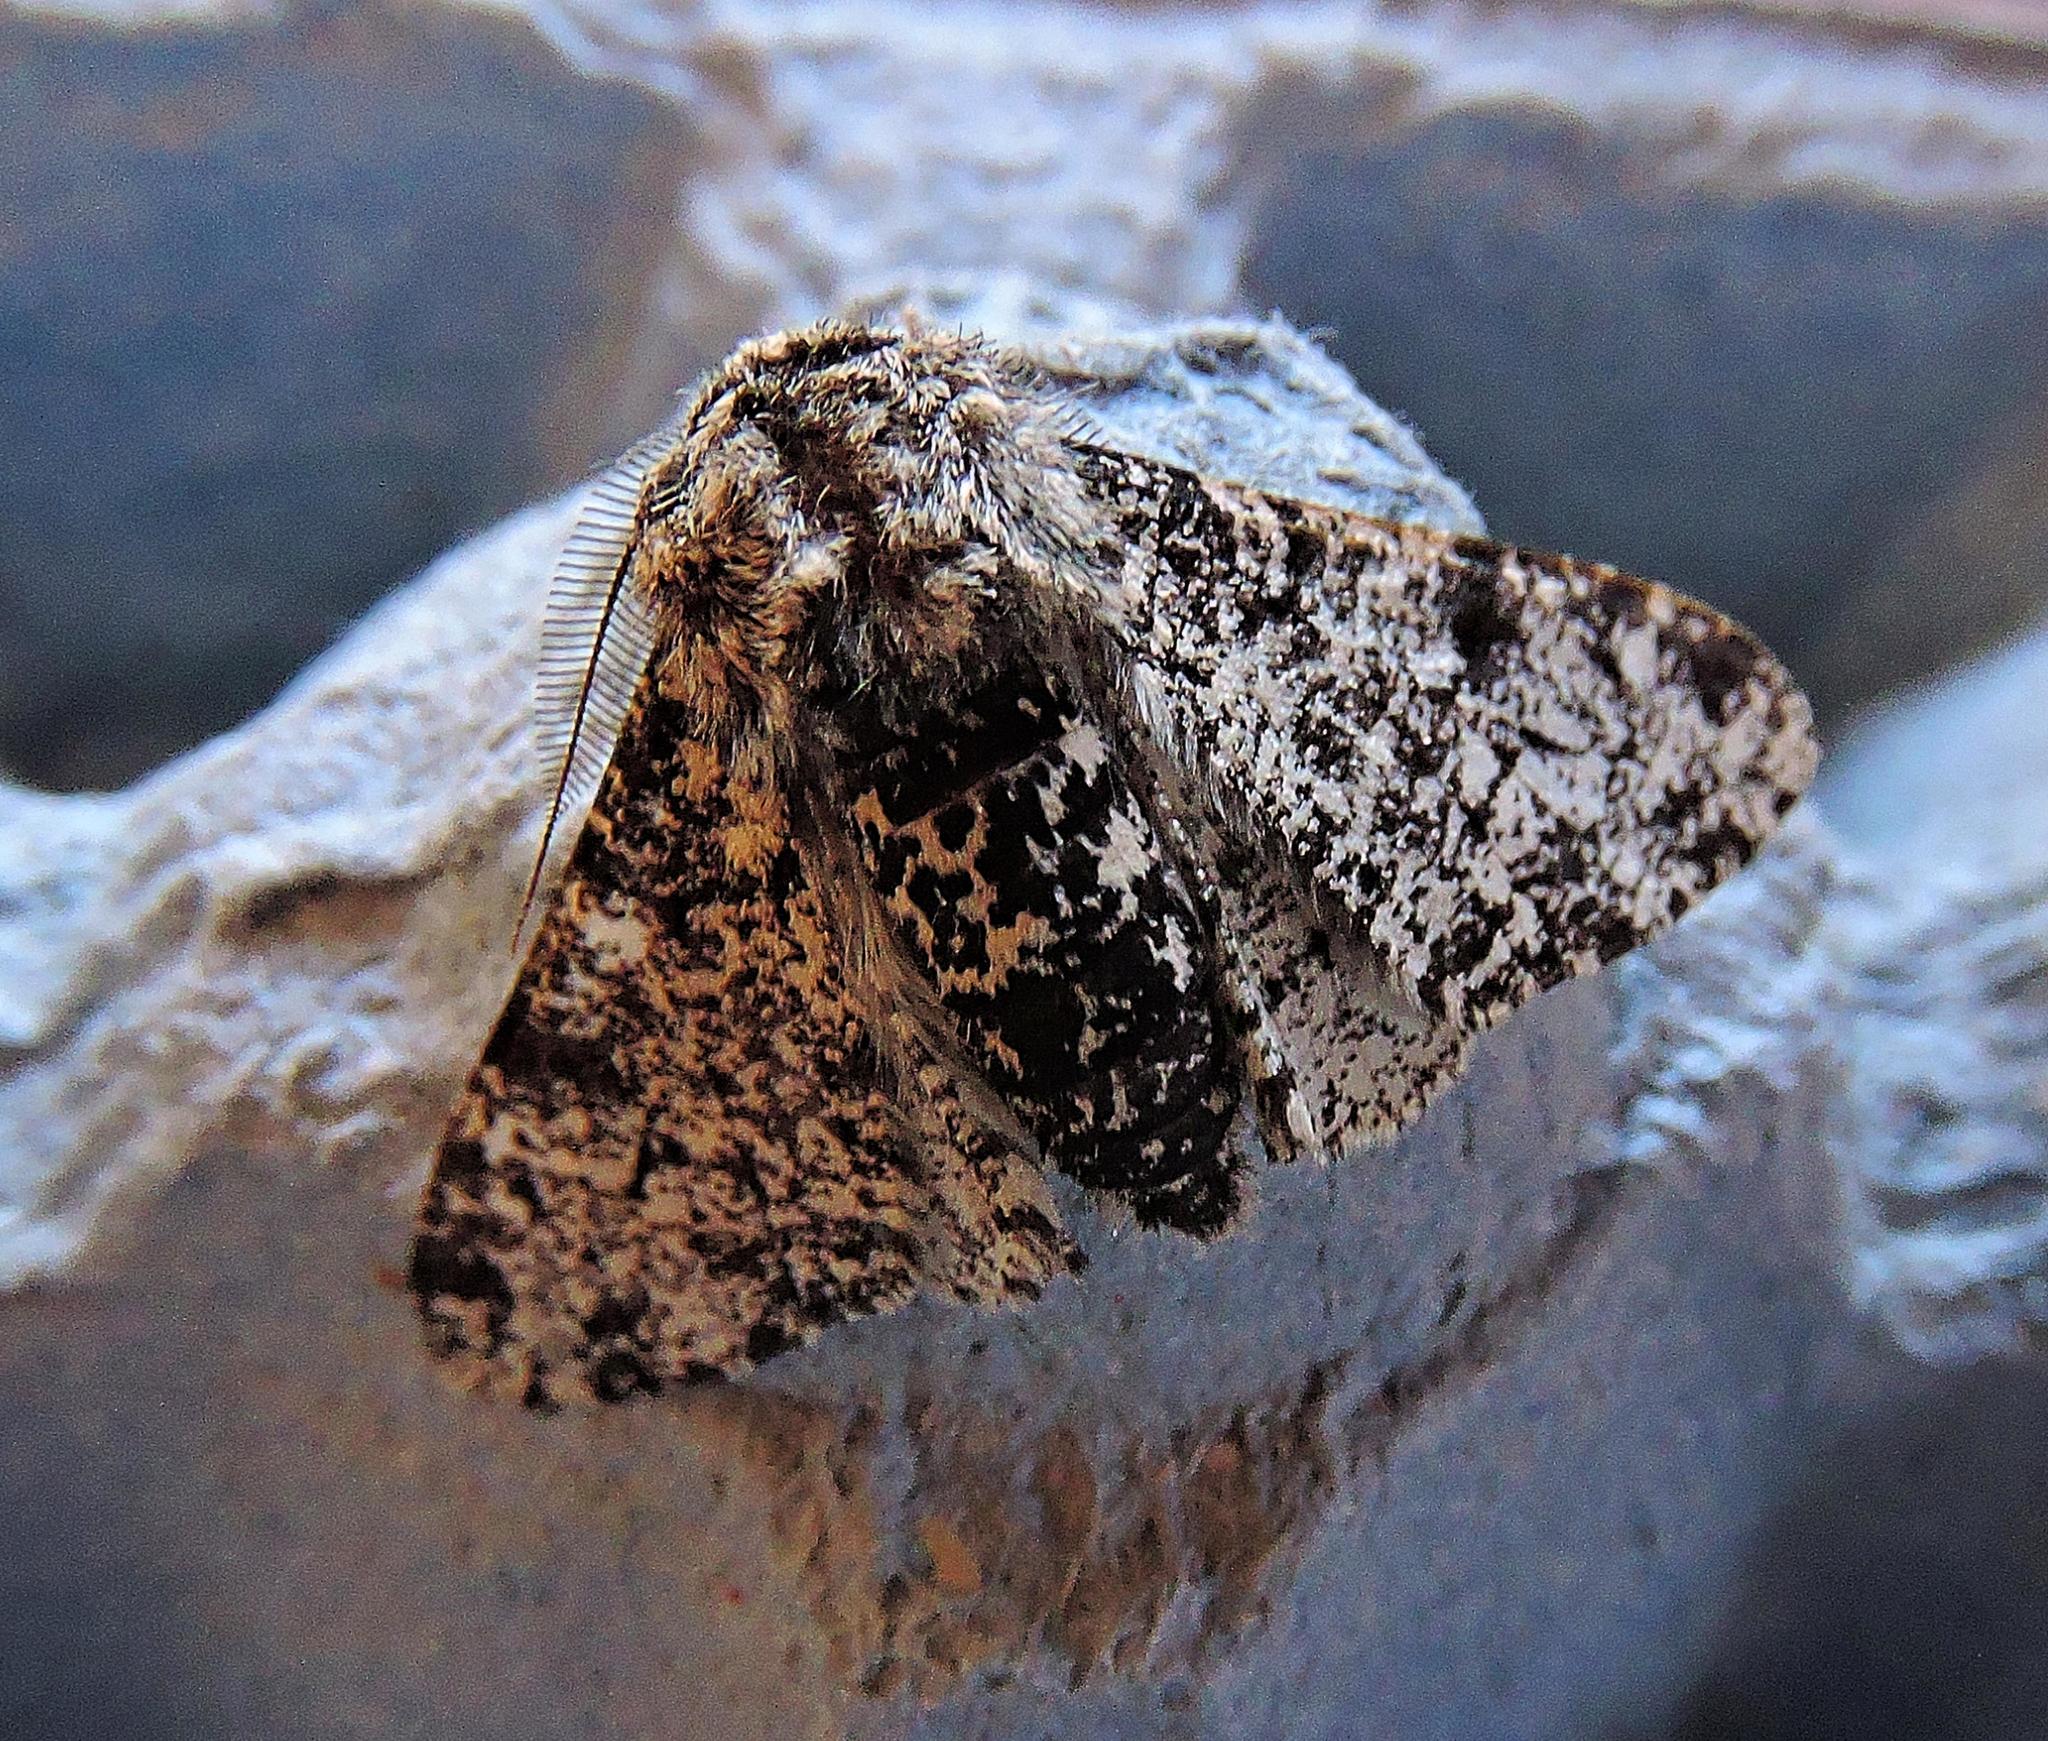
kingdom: Animalia
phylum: Arthropoda
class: Insecta
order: Lepidoptera
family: Geometridae
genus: Biston
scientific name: Biston betularia
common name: Peppered moth
